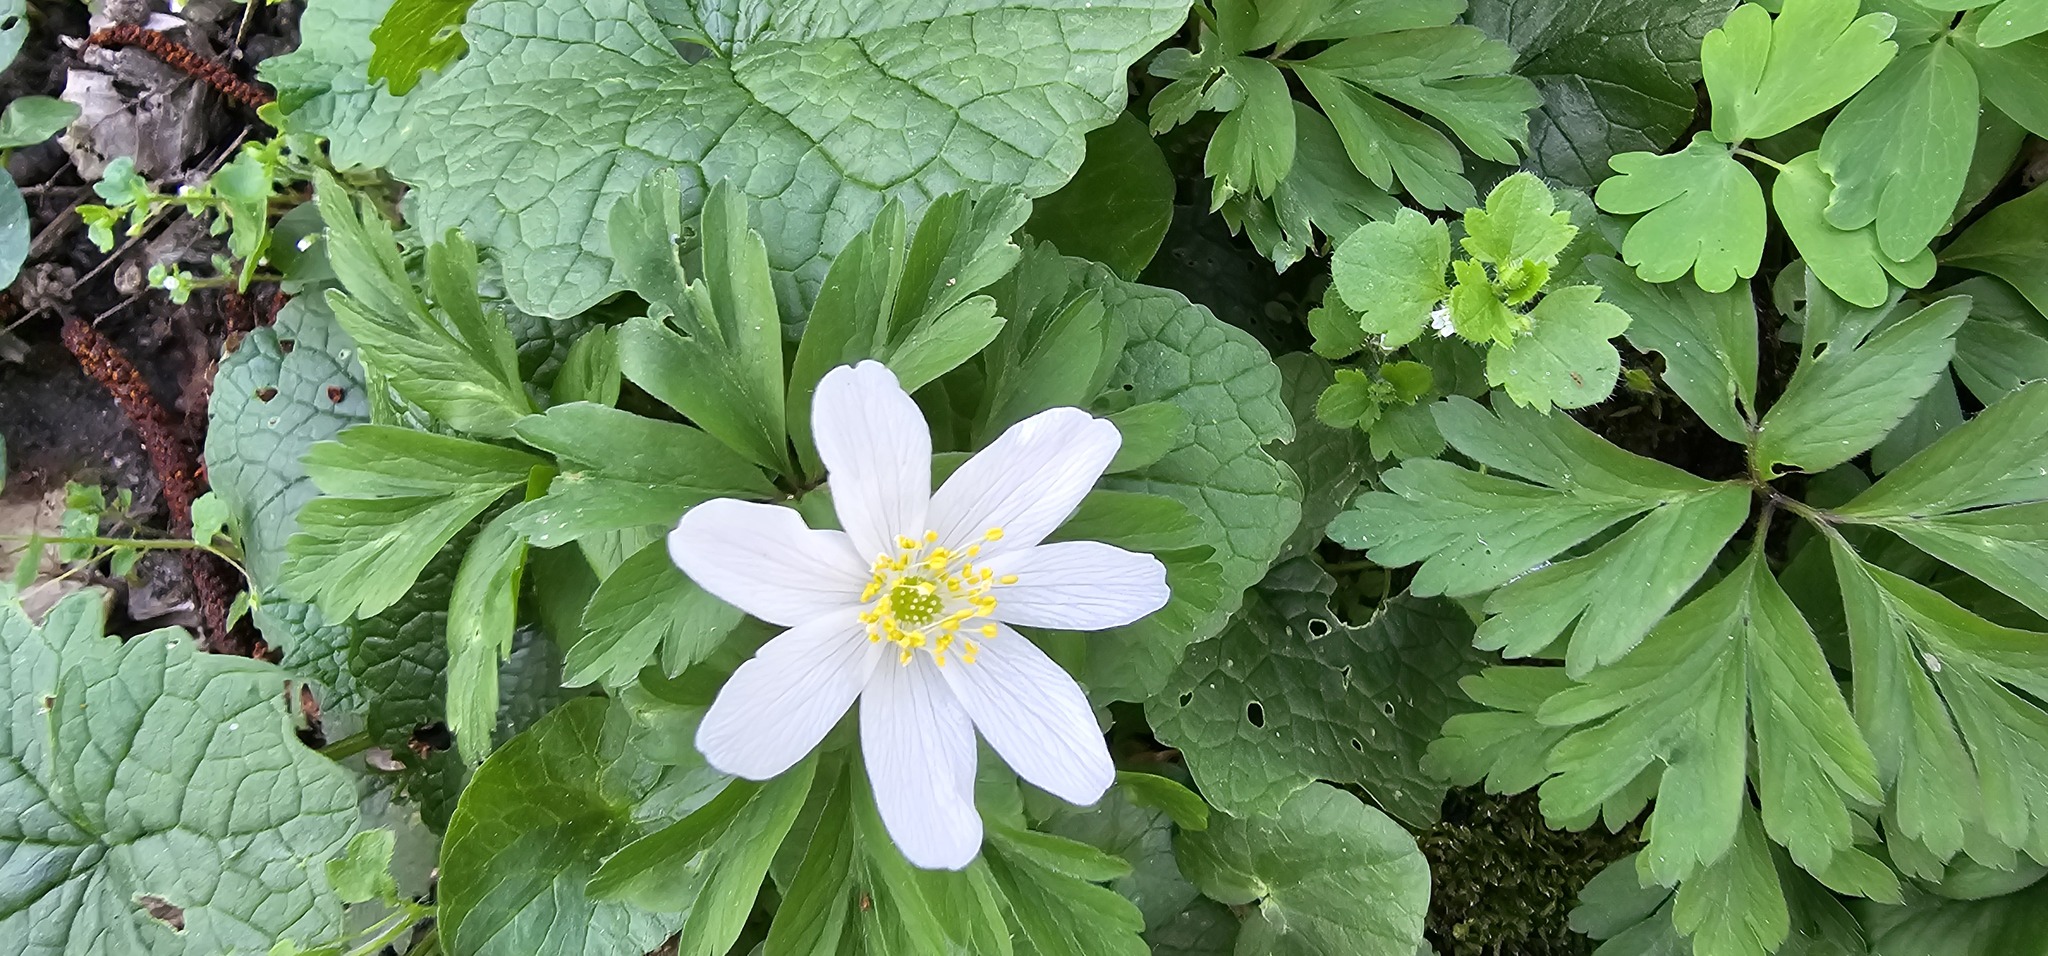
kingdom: Plantae
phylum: Tracheophyta
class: Magnoliopsida
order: Ranunculales
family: Ranunculaceae
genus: Anemone
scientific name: Anemone nemorosa
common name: Wood anemone
